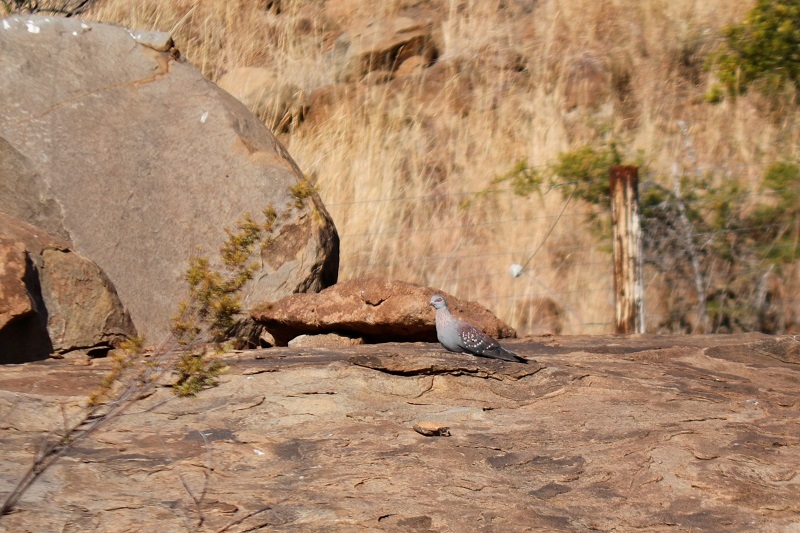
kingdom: Animalia
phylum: Chordata
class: Aves
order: Columbiformes
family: Columbidae
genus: Columba
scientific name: Columba guinea
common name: Speckled pigeon
